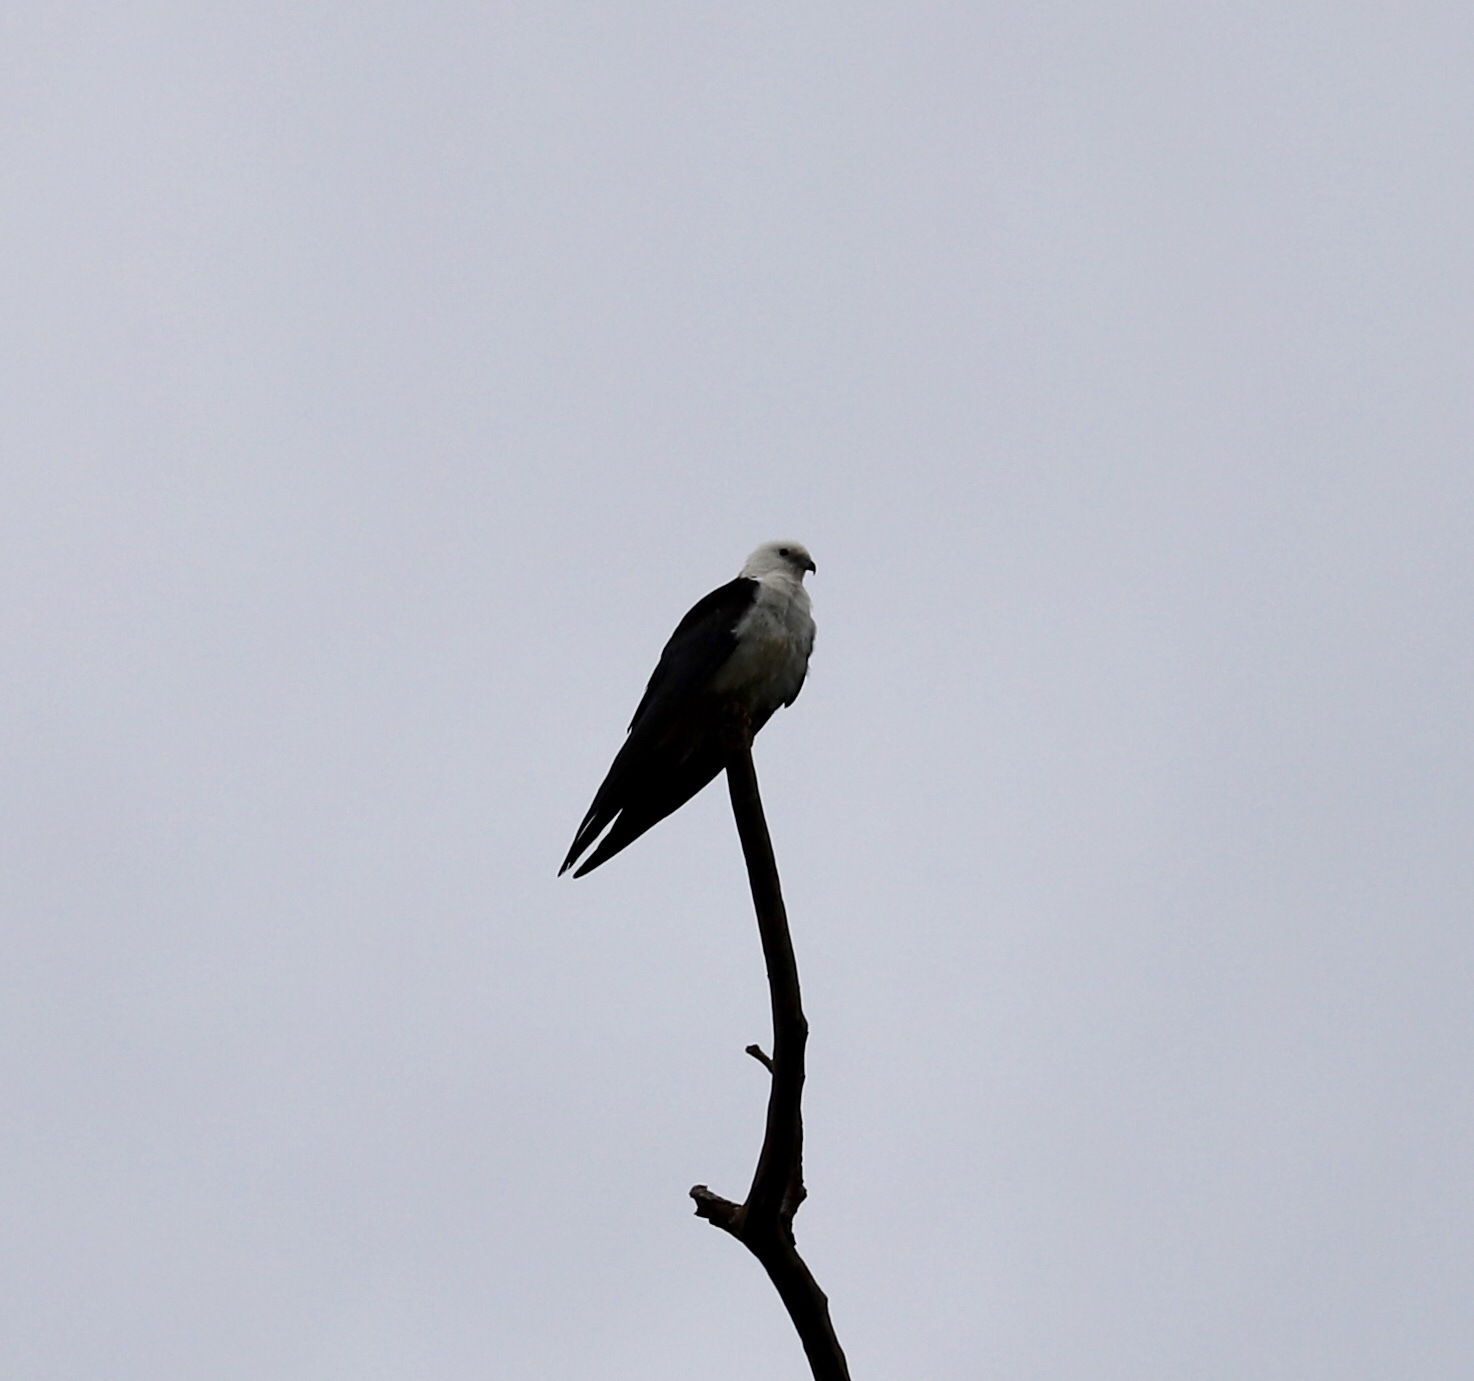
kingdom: Animalia
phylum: Chordata
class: Aves
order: Accipitriformes
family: Accipitridae
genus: Elanoides
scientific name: Elanoides forficatus
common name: Swallow-tailed kite
